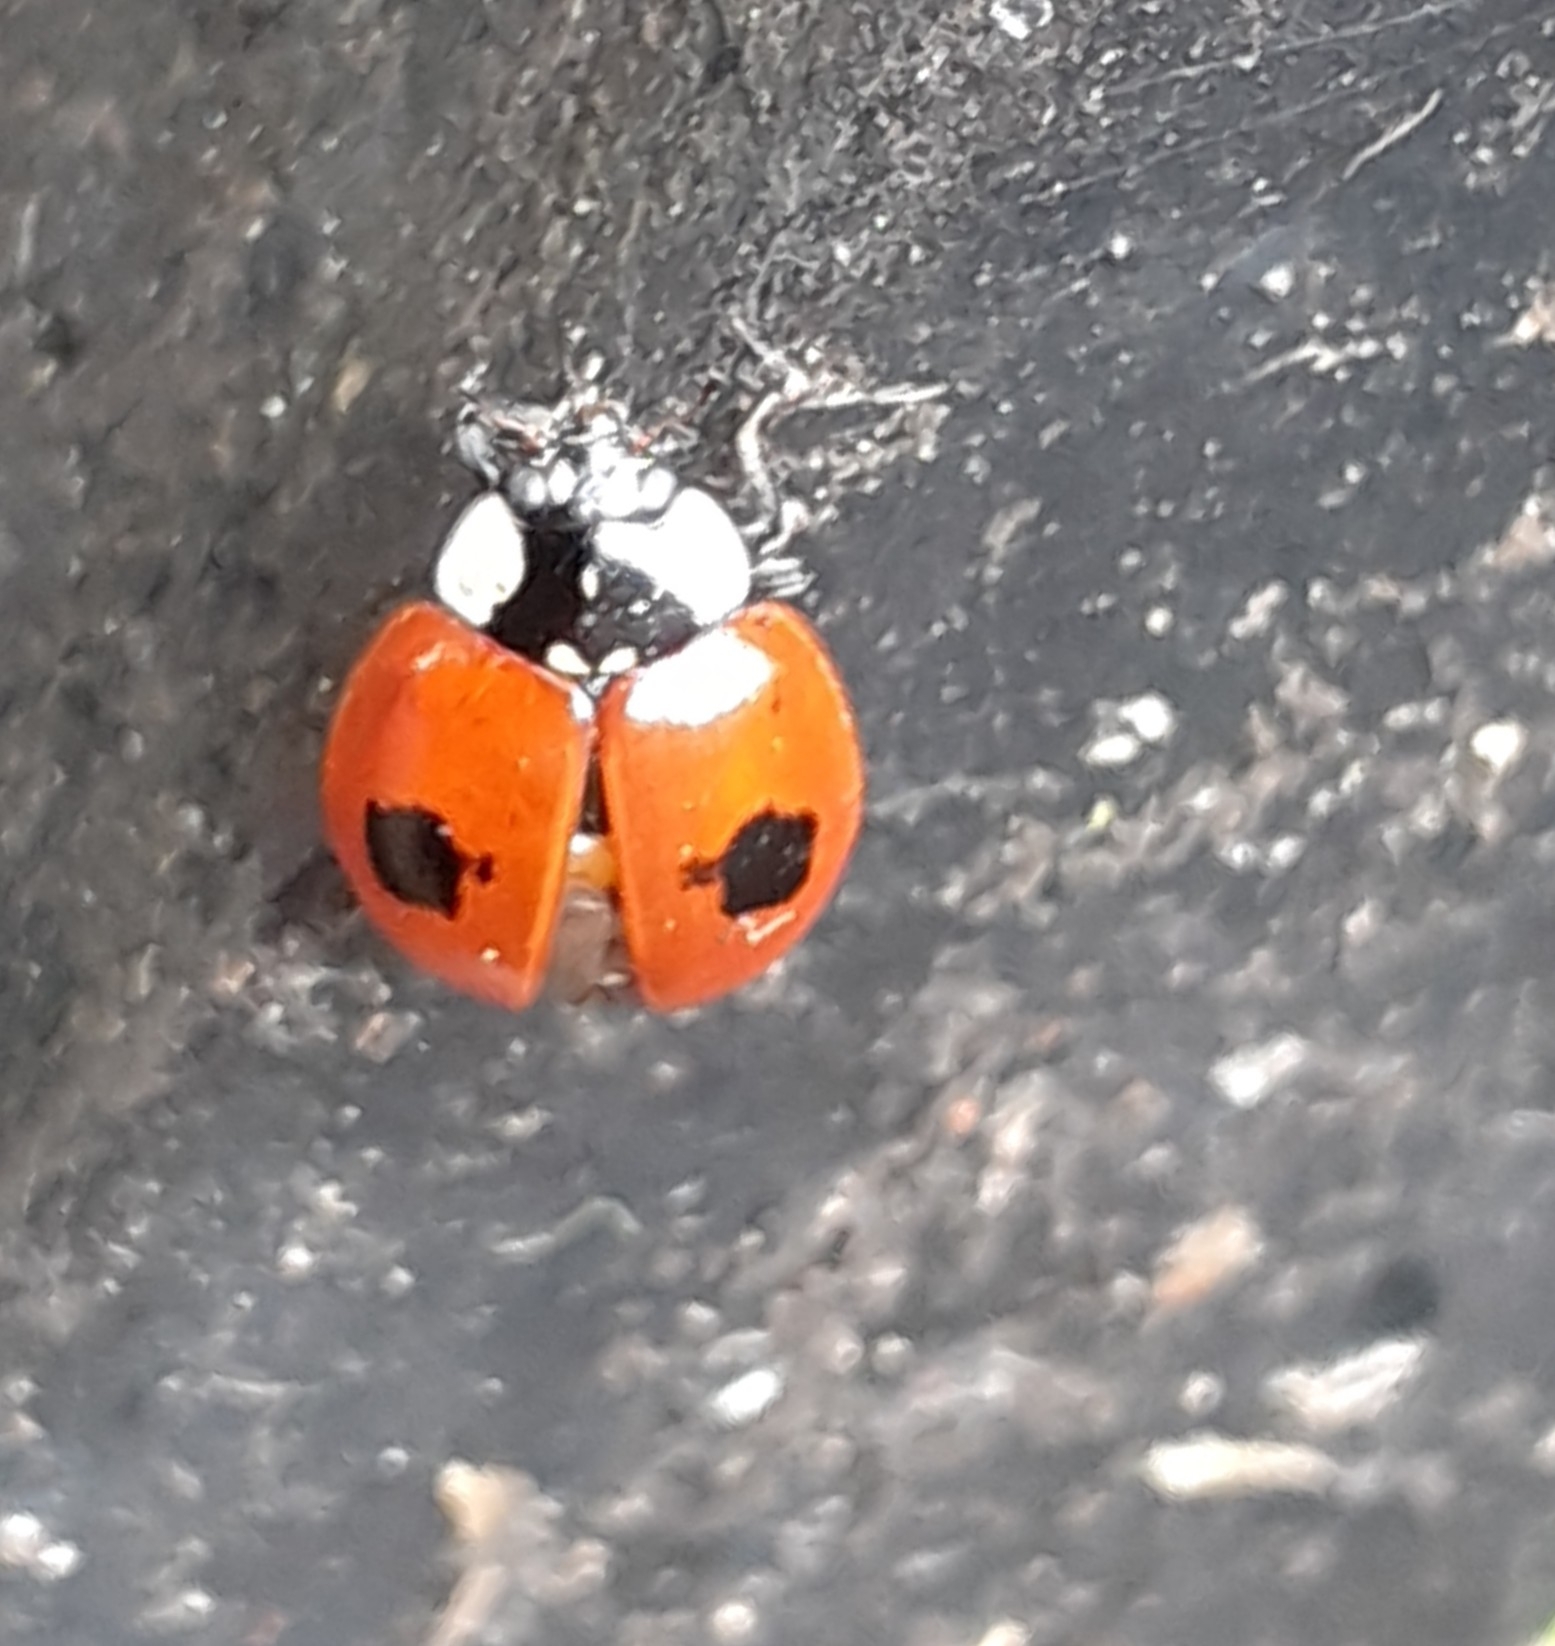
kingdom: Animalia
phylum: Arthropoda
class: Insecta
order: Coleoptera
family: Coccinellidae
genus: Adalia
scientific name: Adalia bipunctata
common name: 2-spot ladybird
